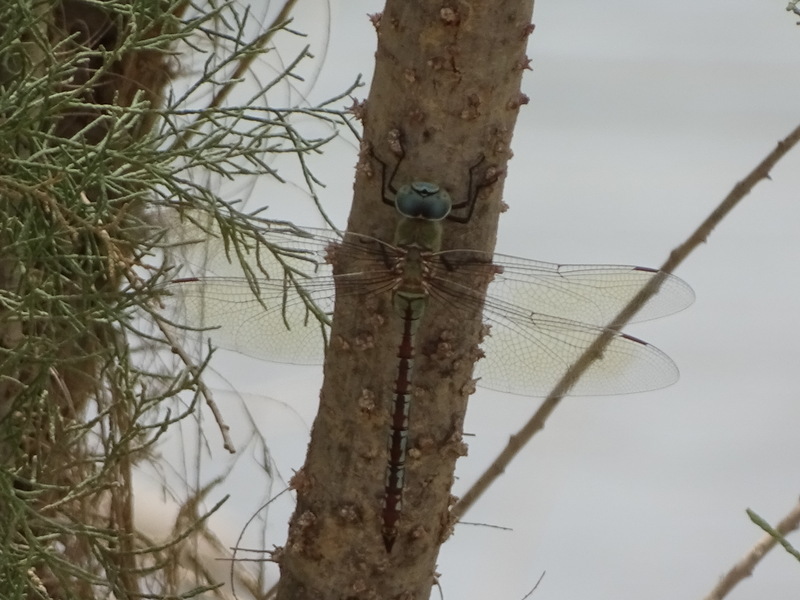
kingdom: Animalia
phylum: Arthropoda
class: Insecta
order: Odonata
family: Aeshnidae
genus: Anax
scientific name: Anax parthenope
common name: Lesser emperor
